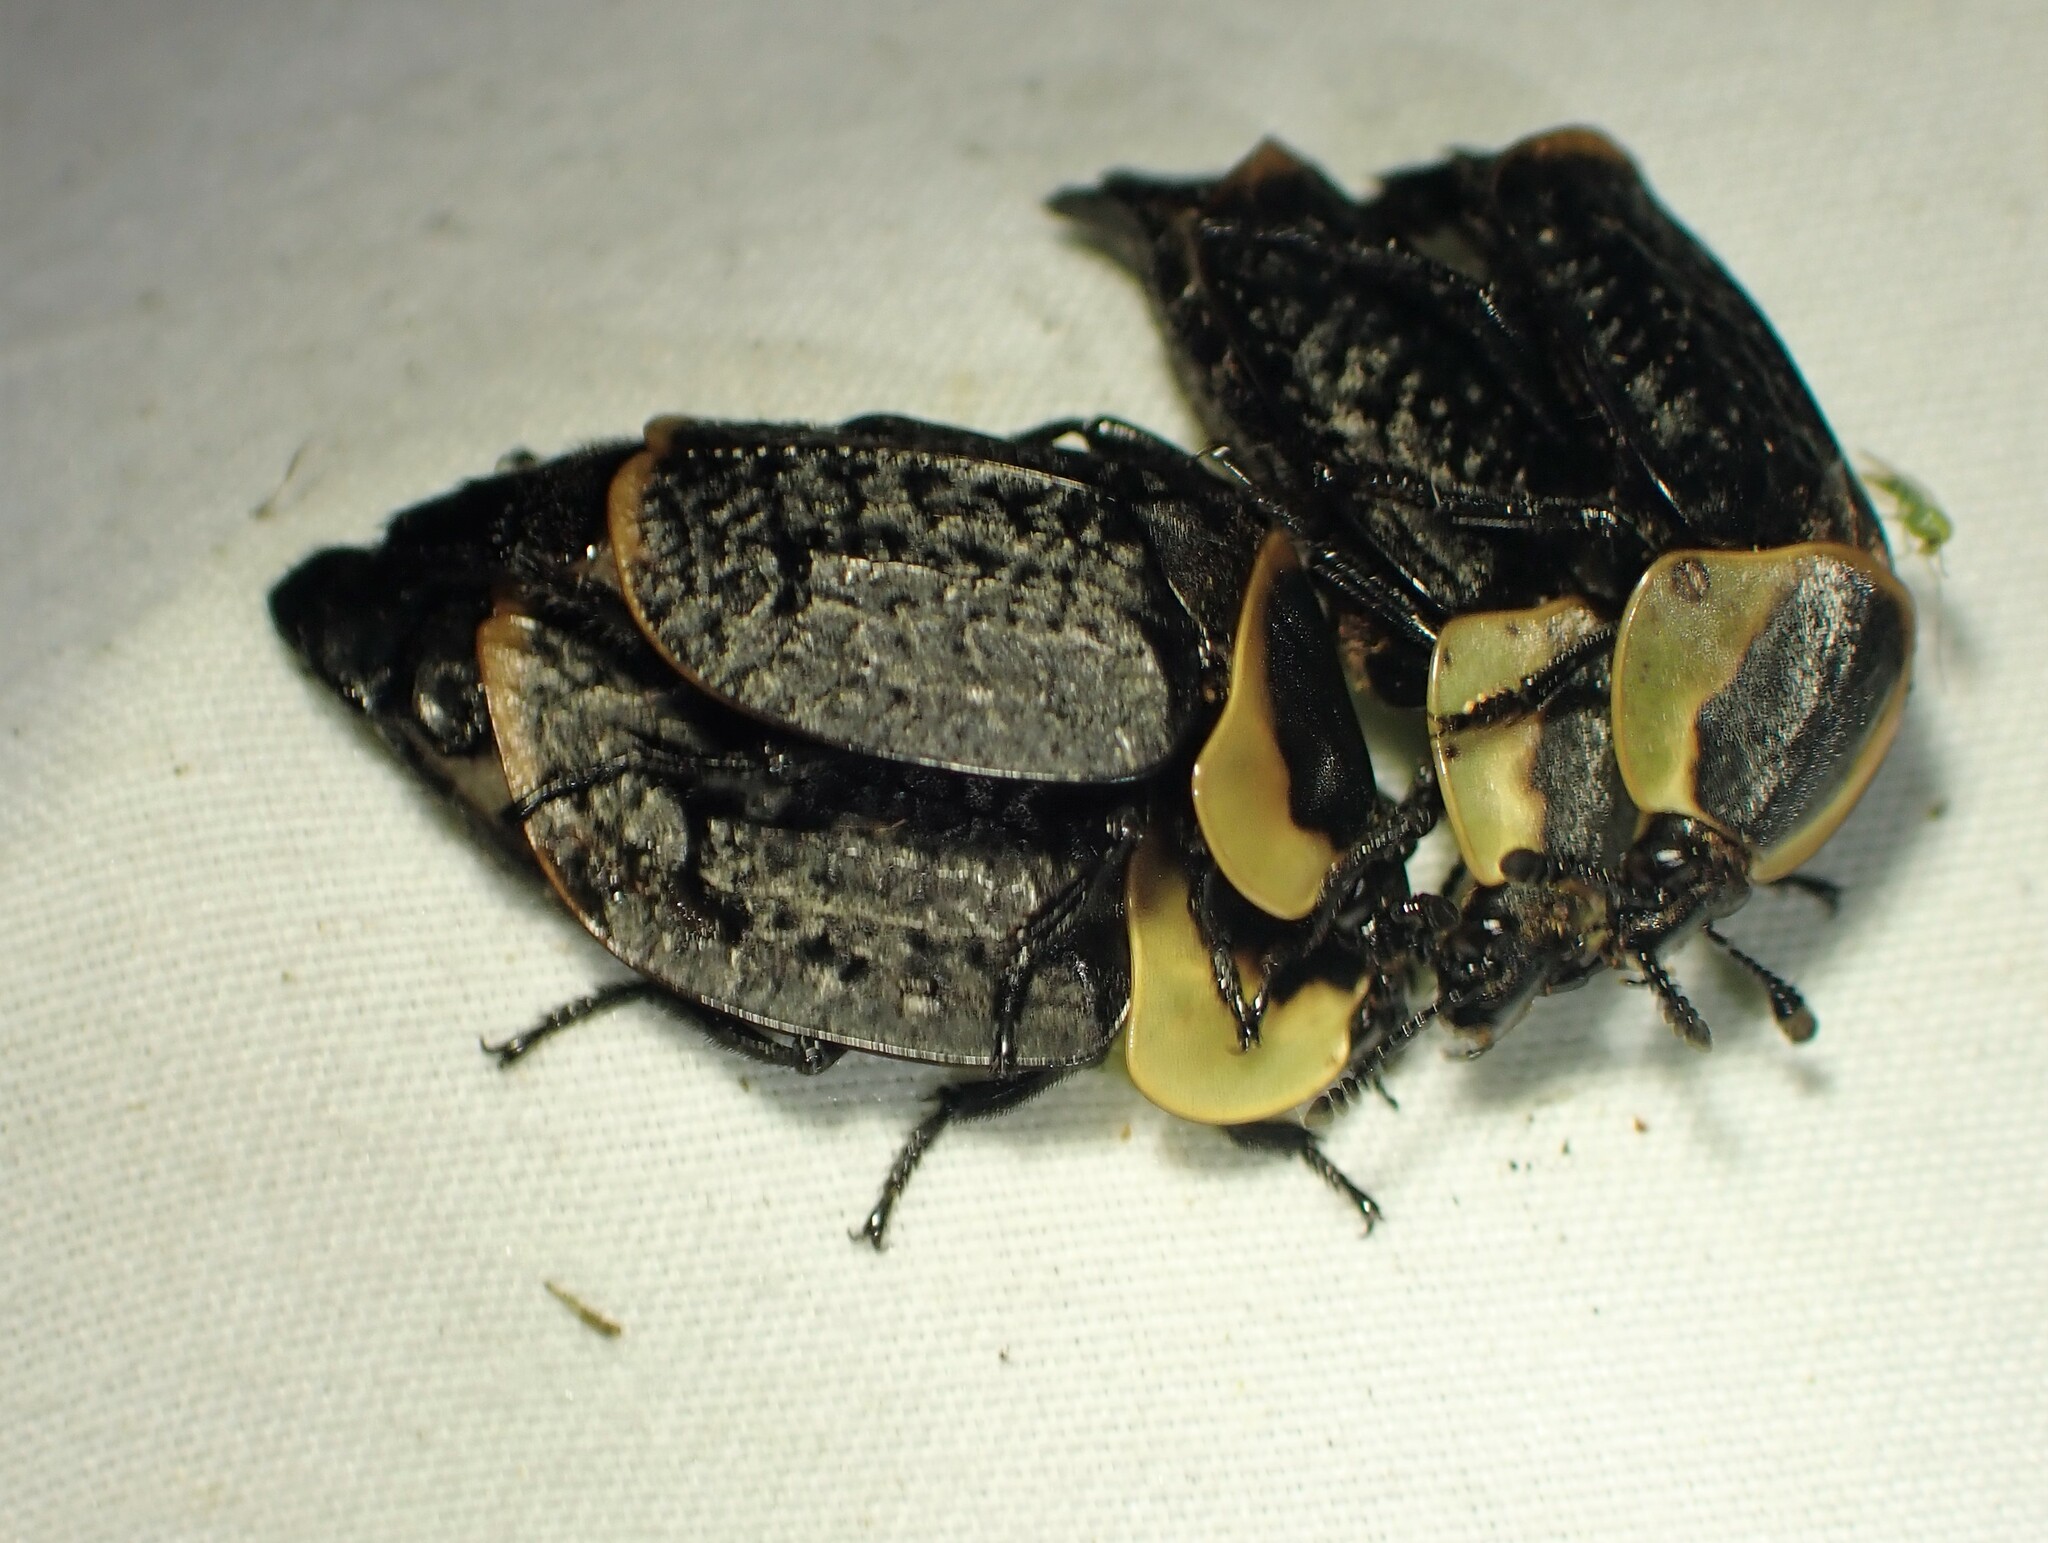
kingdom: Animalia
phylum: Arthropoda
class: Insecta
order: Coleoptera
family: Staphylinidae
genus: Necrophila
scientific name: Necrophila americana
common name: American carrion beetle
